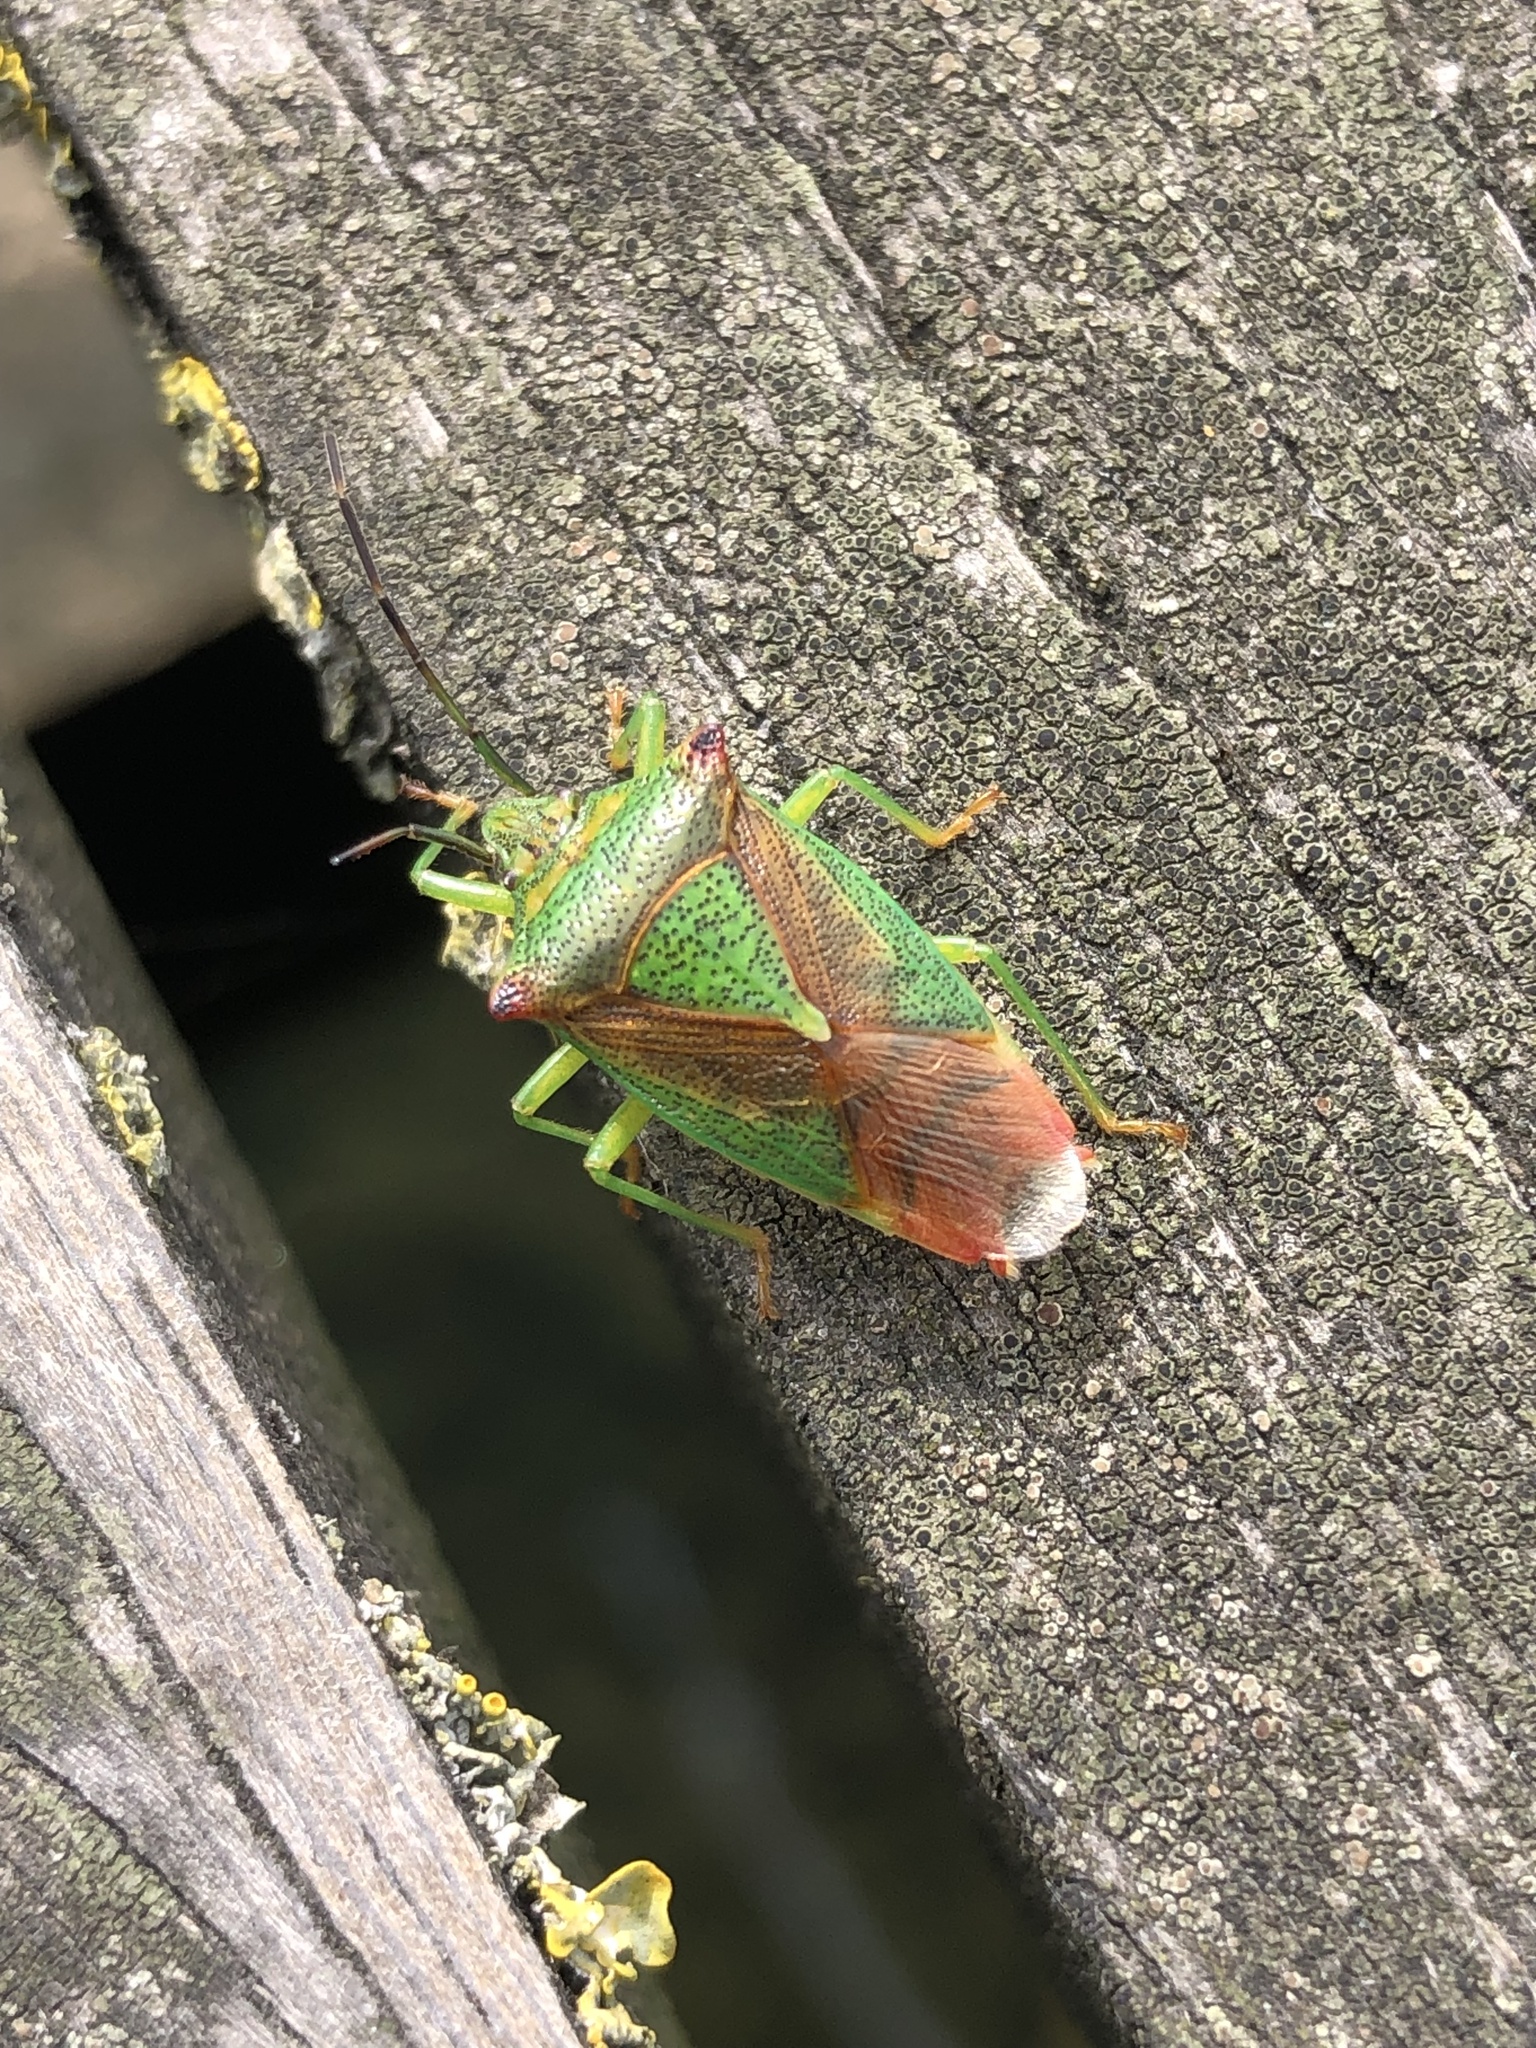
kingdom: Animalia
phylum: Arthropoda
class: Insecta
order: Hemiptera
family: Acanthosomatidae
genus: Acanthosoma
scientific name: Acanthosoma haemorrhoidale
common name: Hawthorn shieldbug
